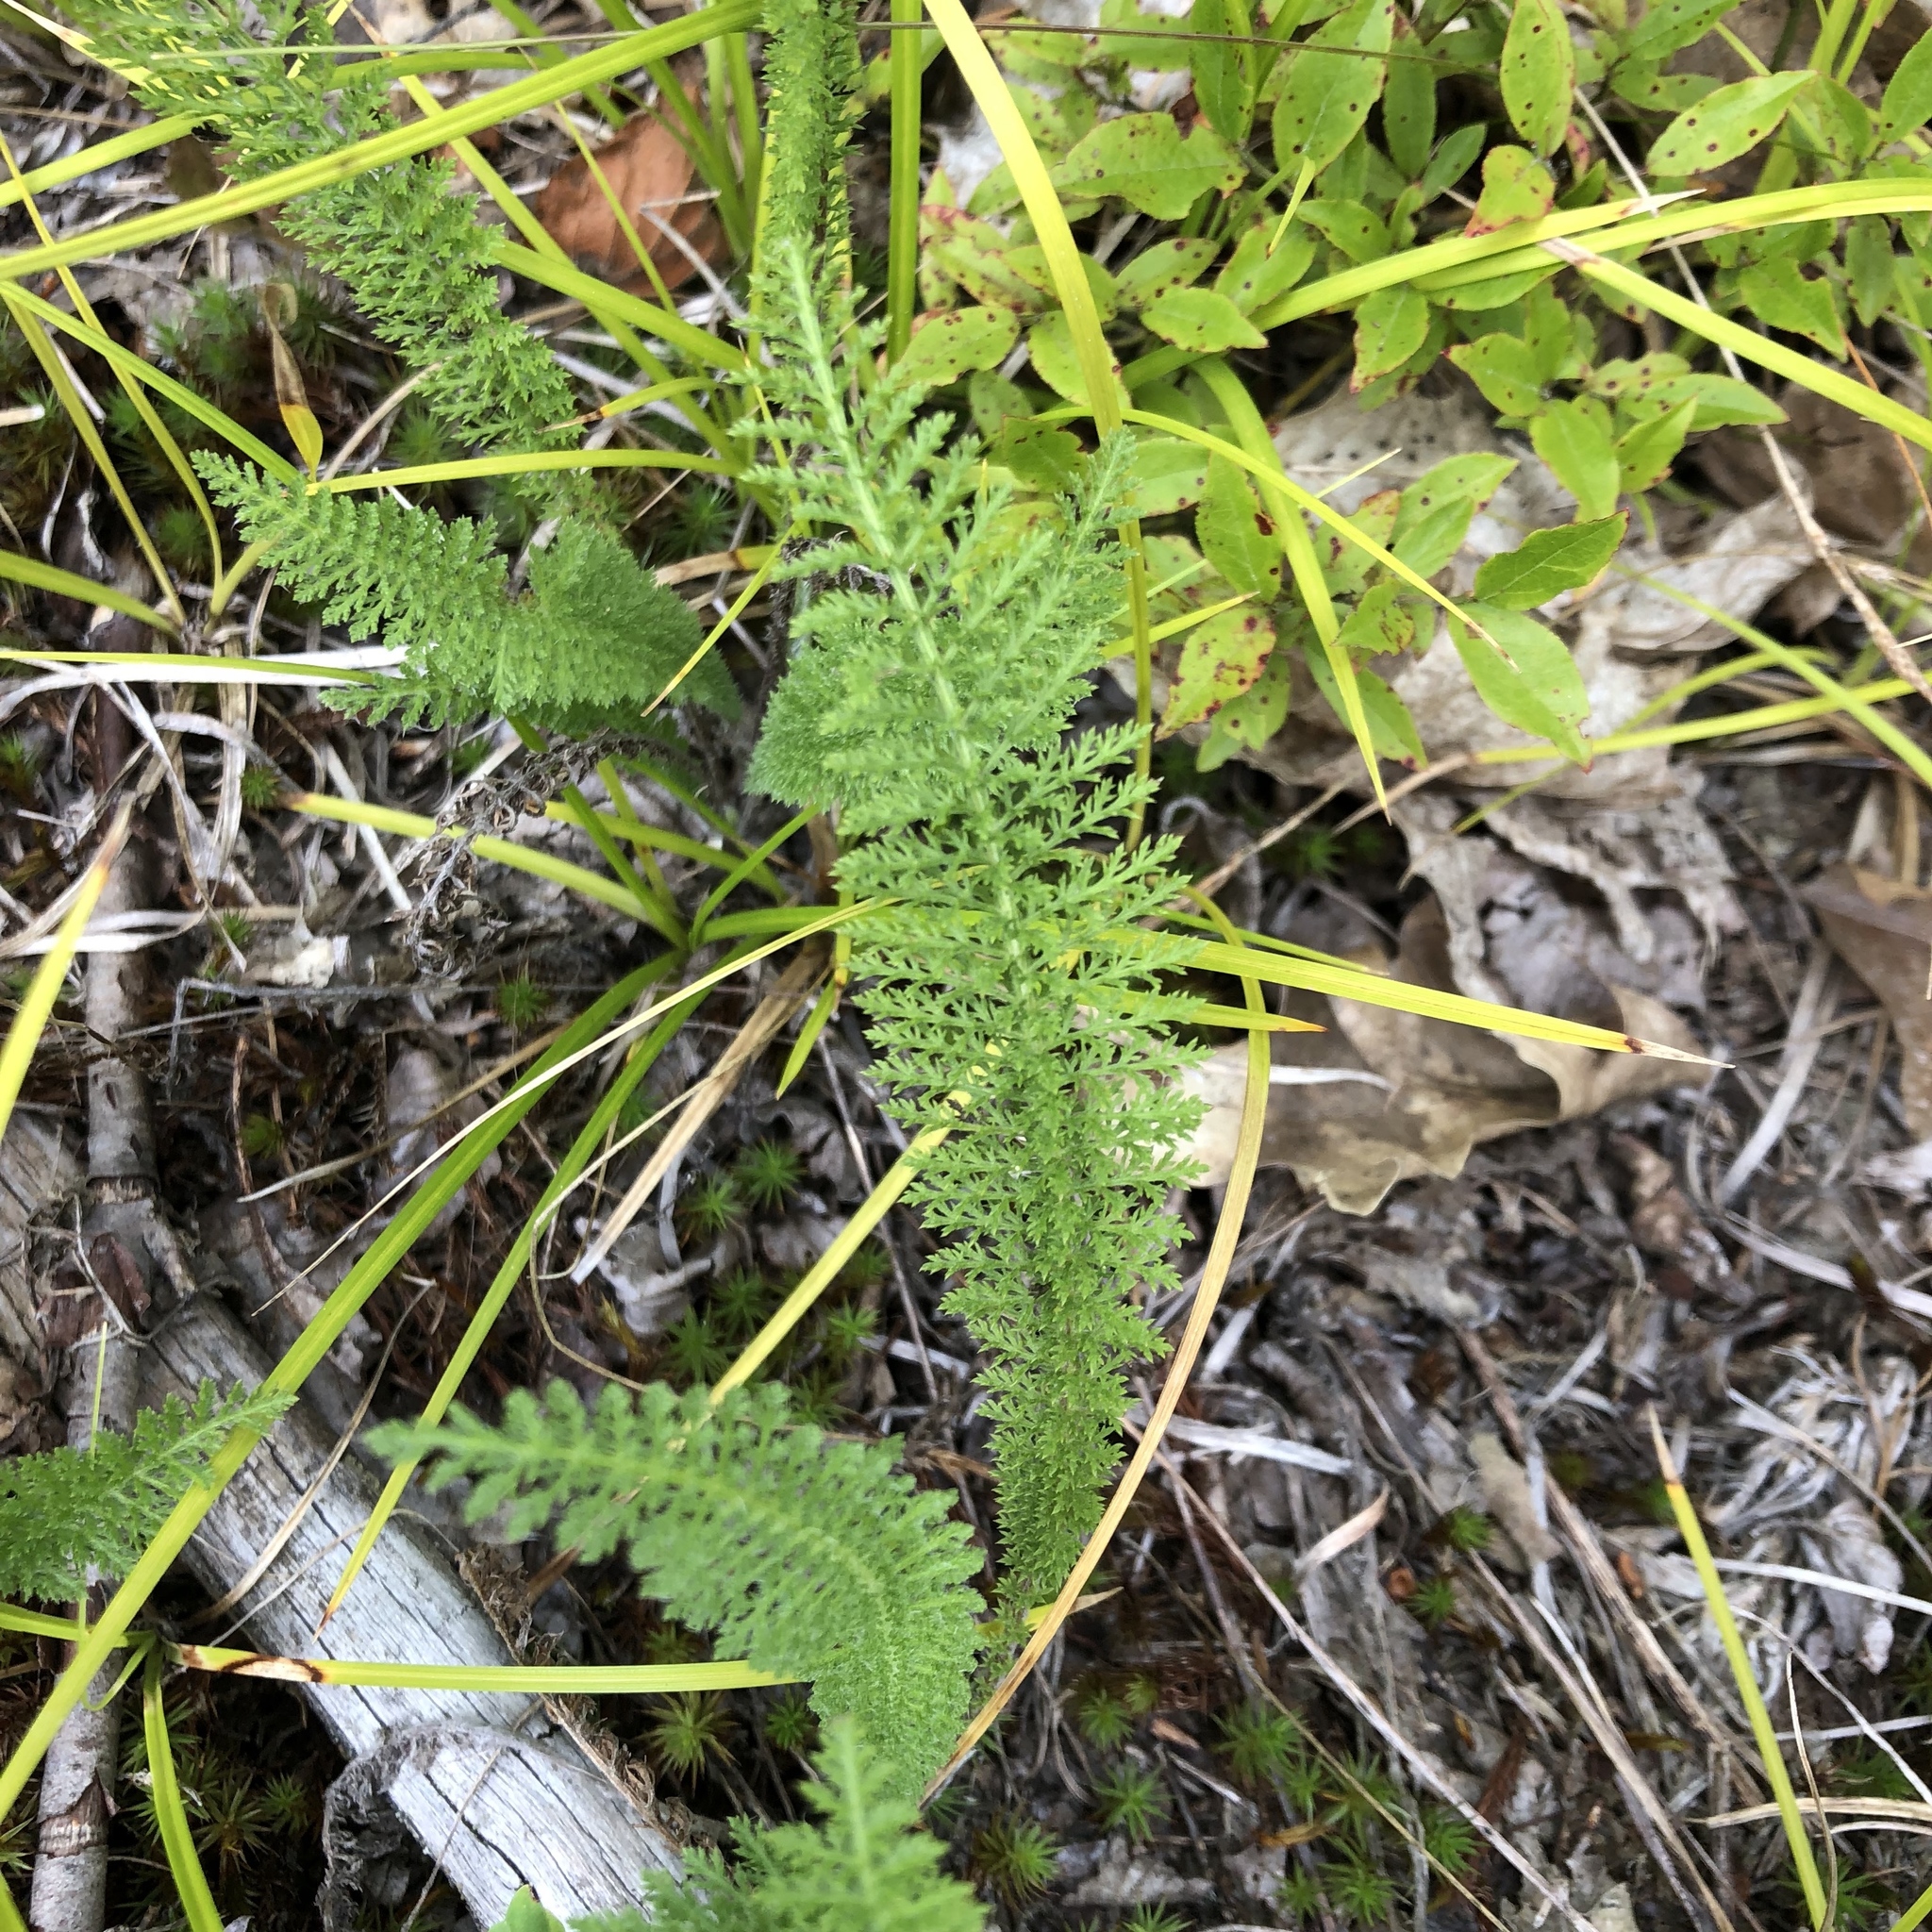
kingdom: Plantae
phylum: Tracheophyta
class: Magnoliopsida
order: Asterales
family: Asteraceae
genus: Achillea
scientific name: Achillea millefolium
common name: Yarrow
